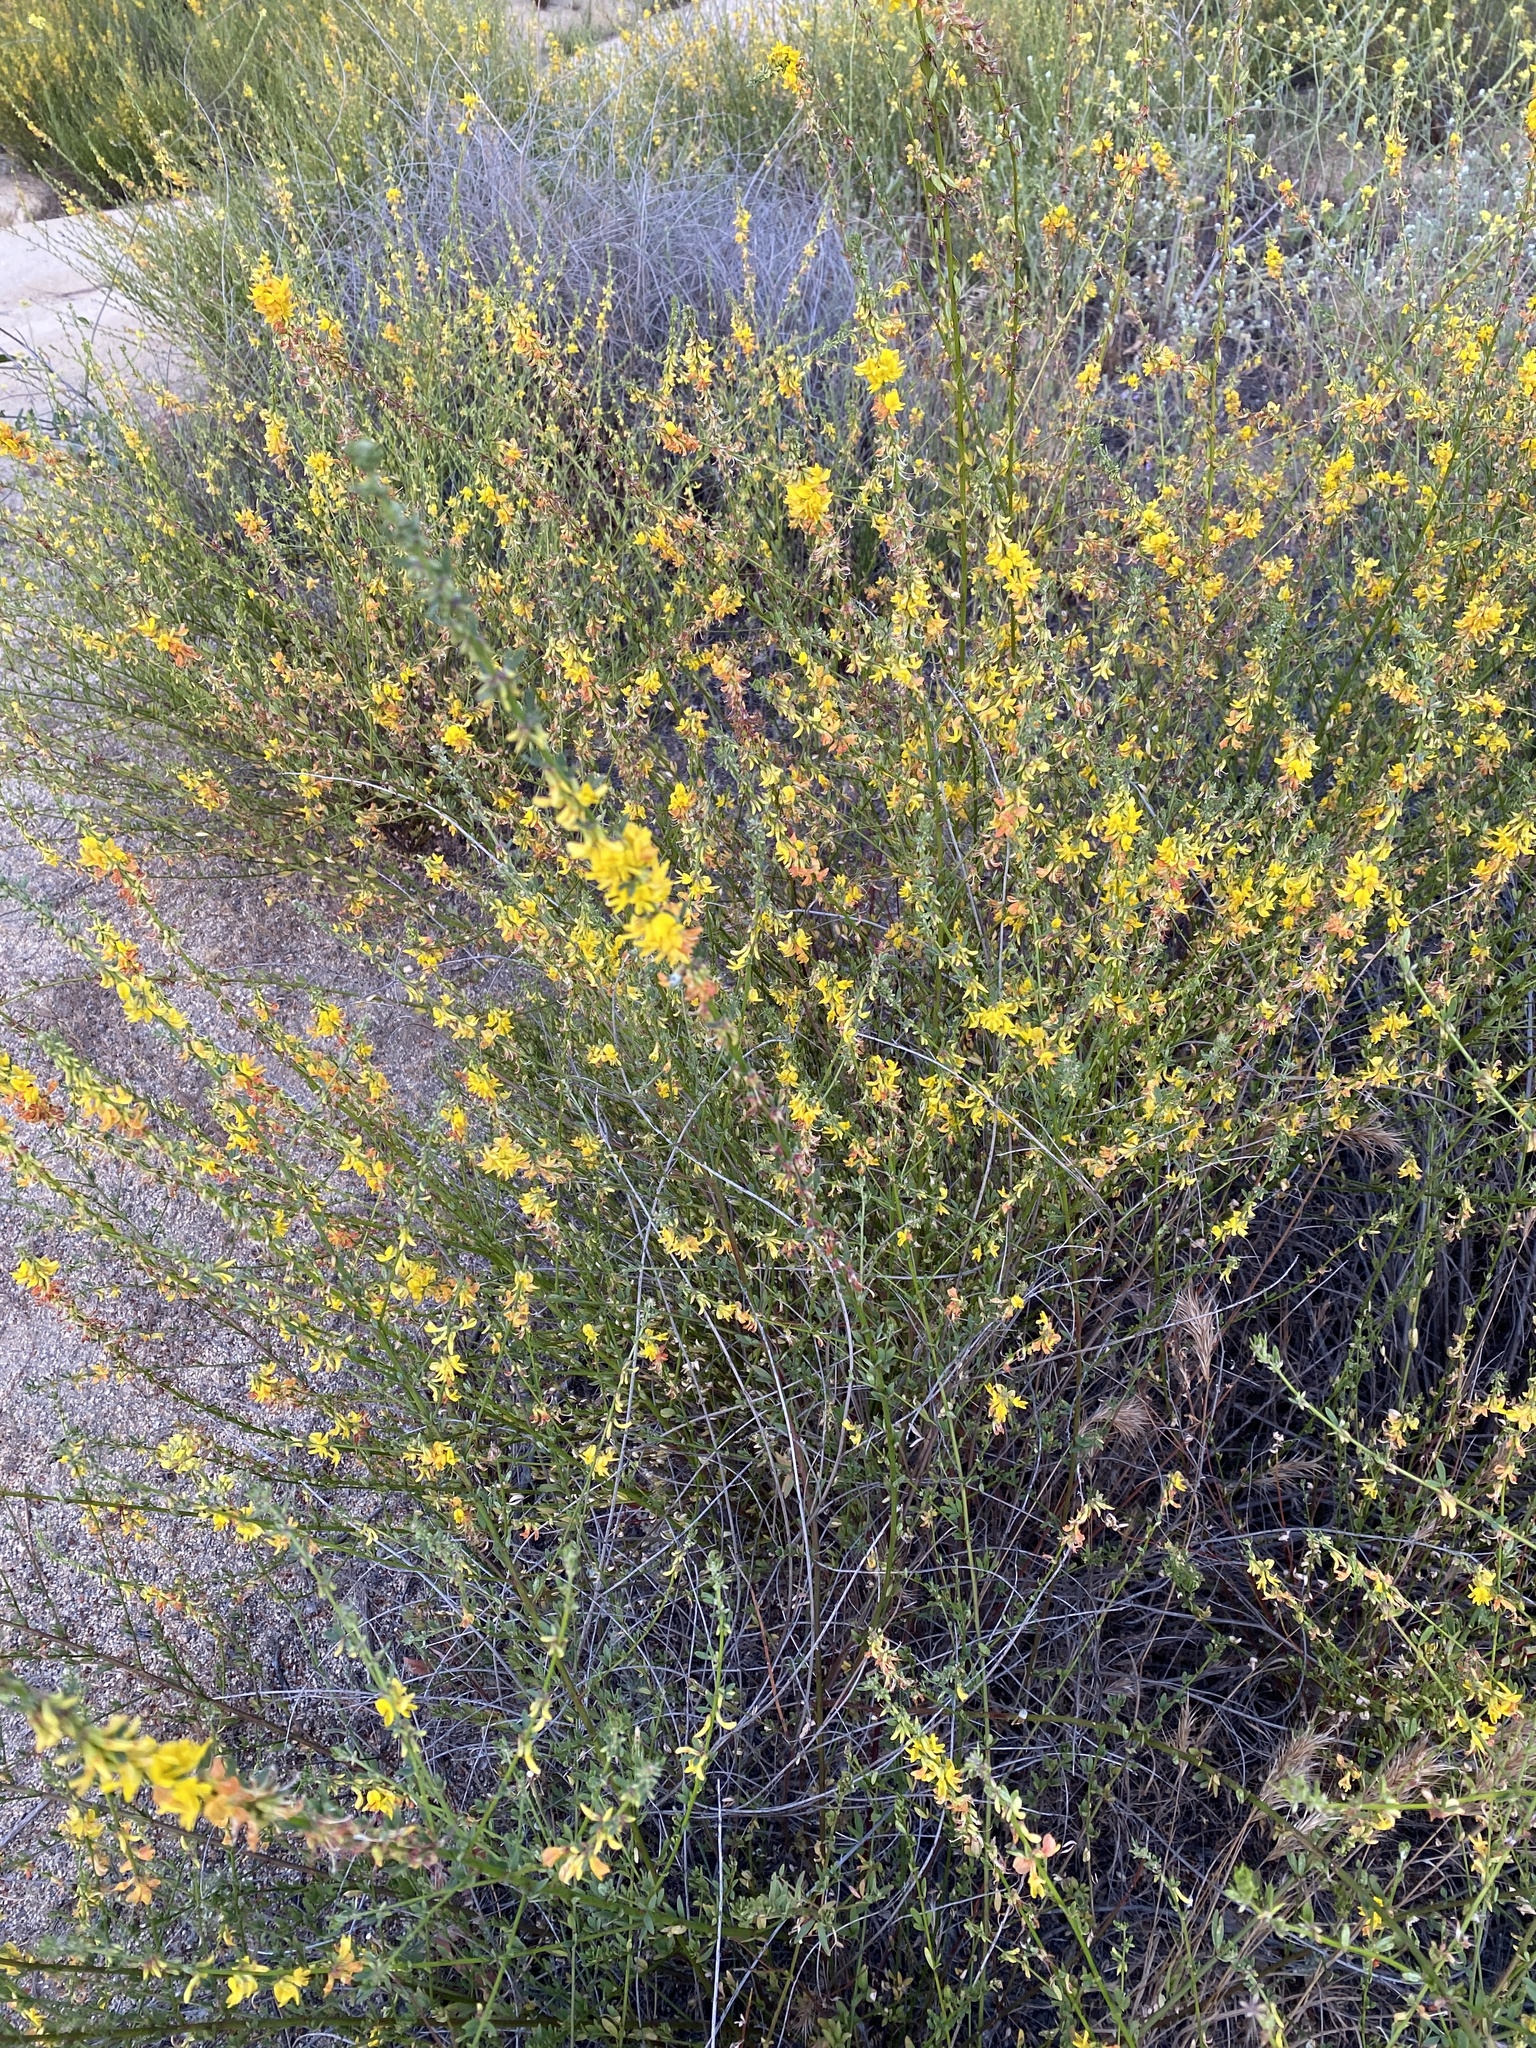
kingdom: Plantae
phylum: Tracheophyta
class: Magnoliopsida
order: Fabales
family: Fabaceae
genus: Acmispon
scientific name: Acmispon glaber
